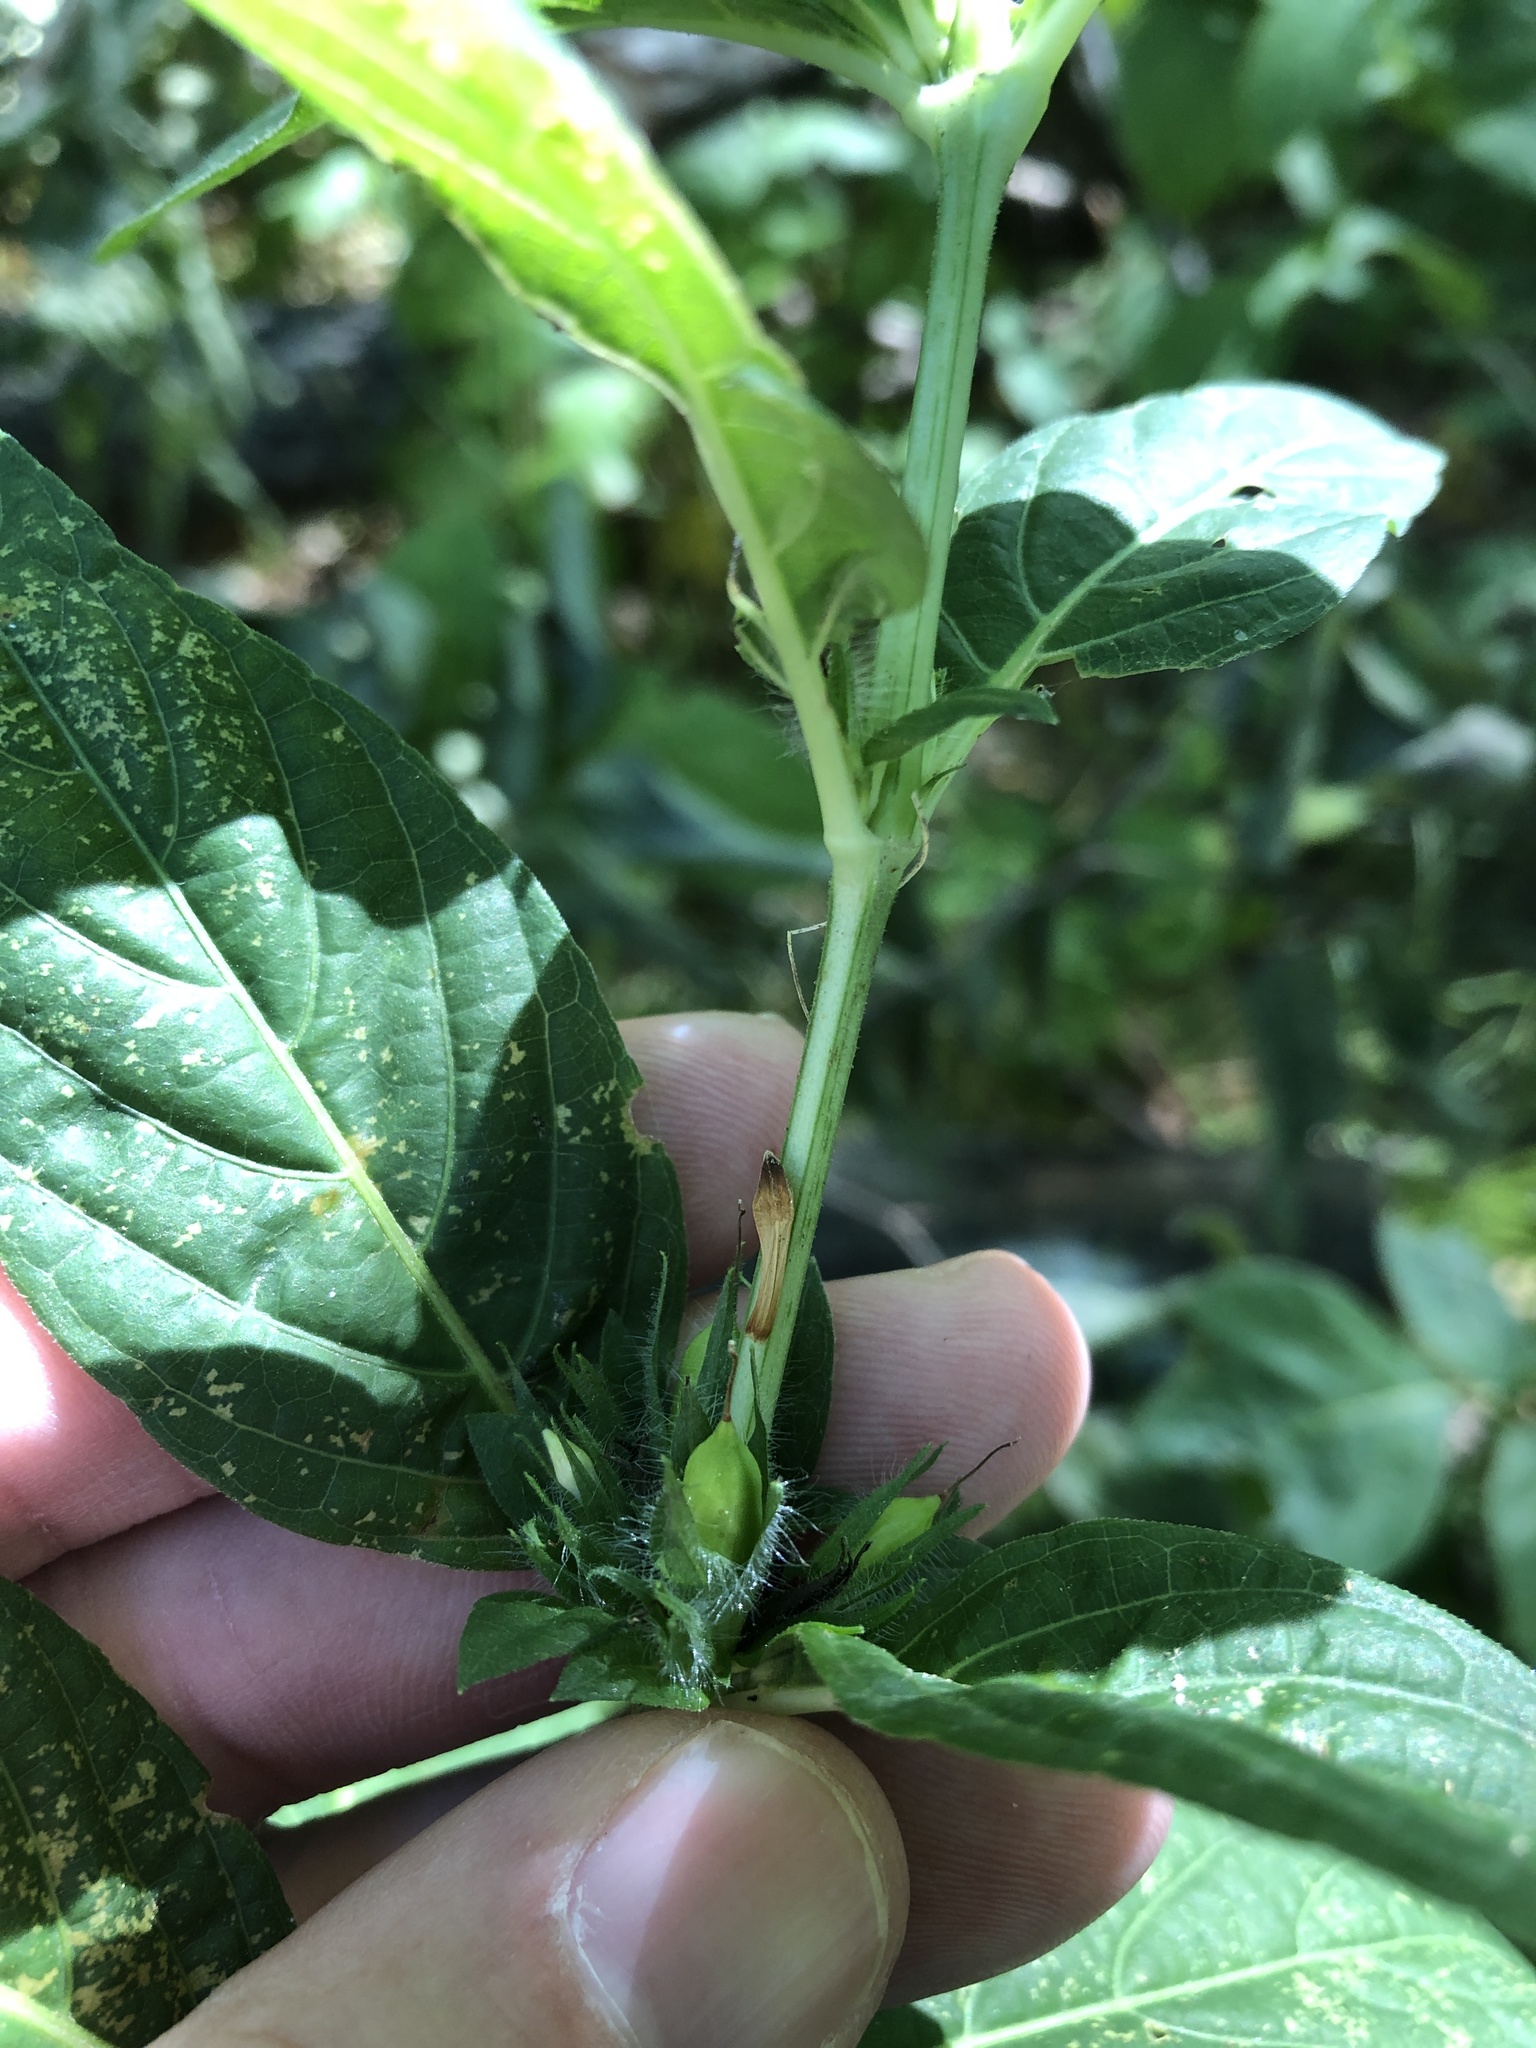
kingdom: Plantae
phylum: Tracheophyta
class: Magnoliopsida
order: Lamiales
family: Acanthaceae
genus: Ruellia
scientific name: Ruellia strepens
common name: Limestone wild petunia
